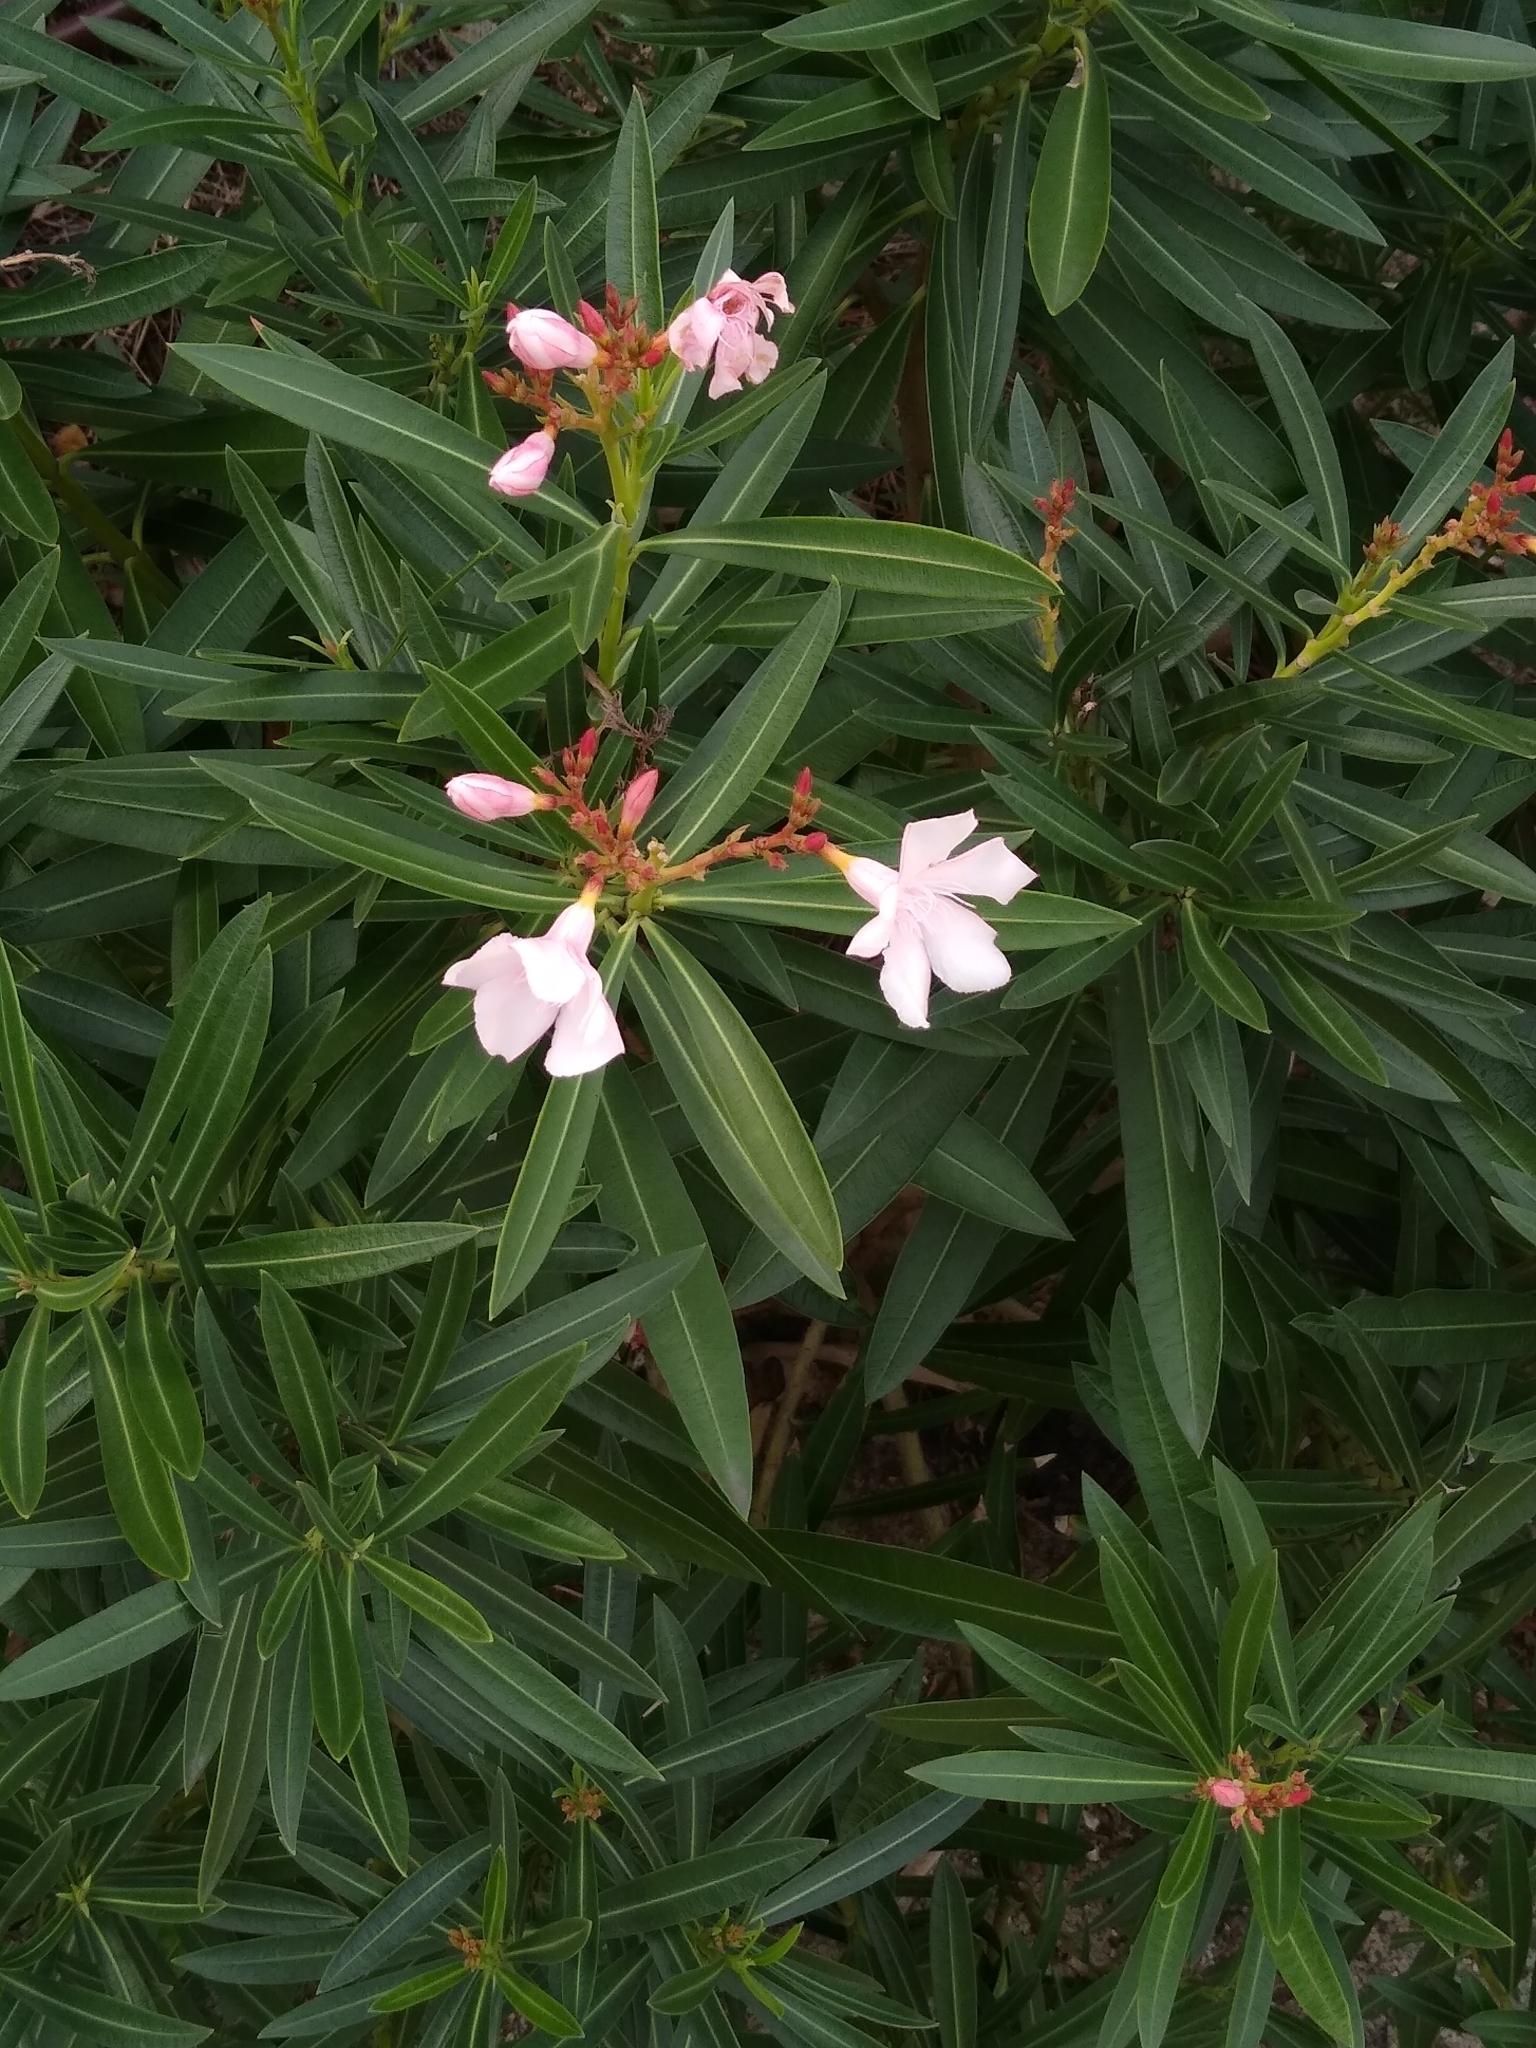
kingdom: Plantae
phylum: Tracheophyta
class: Magnoliopsida
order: Gentianales
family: Apocynaceae
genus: Nerium
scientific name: Nerium oleander
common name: Oleander
